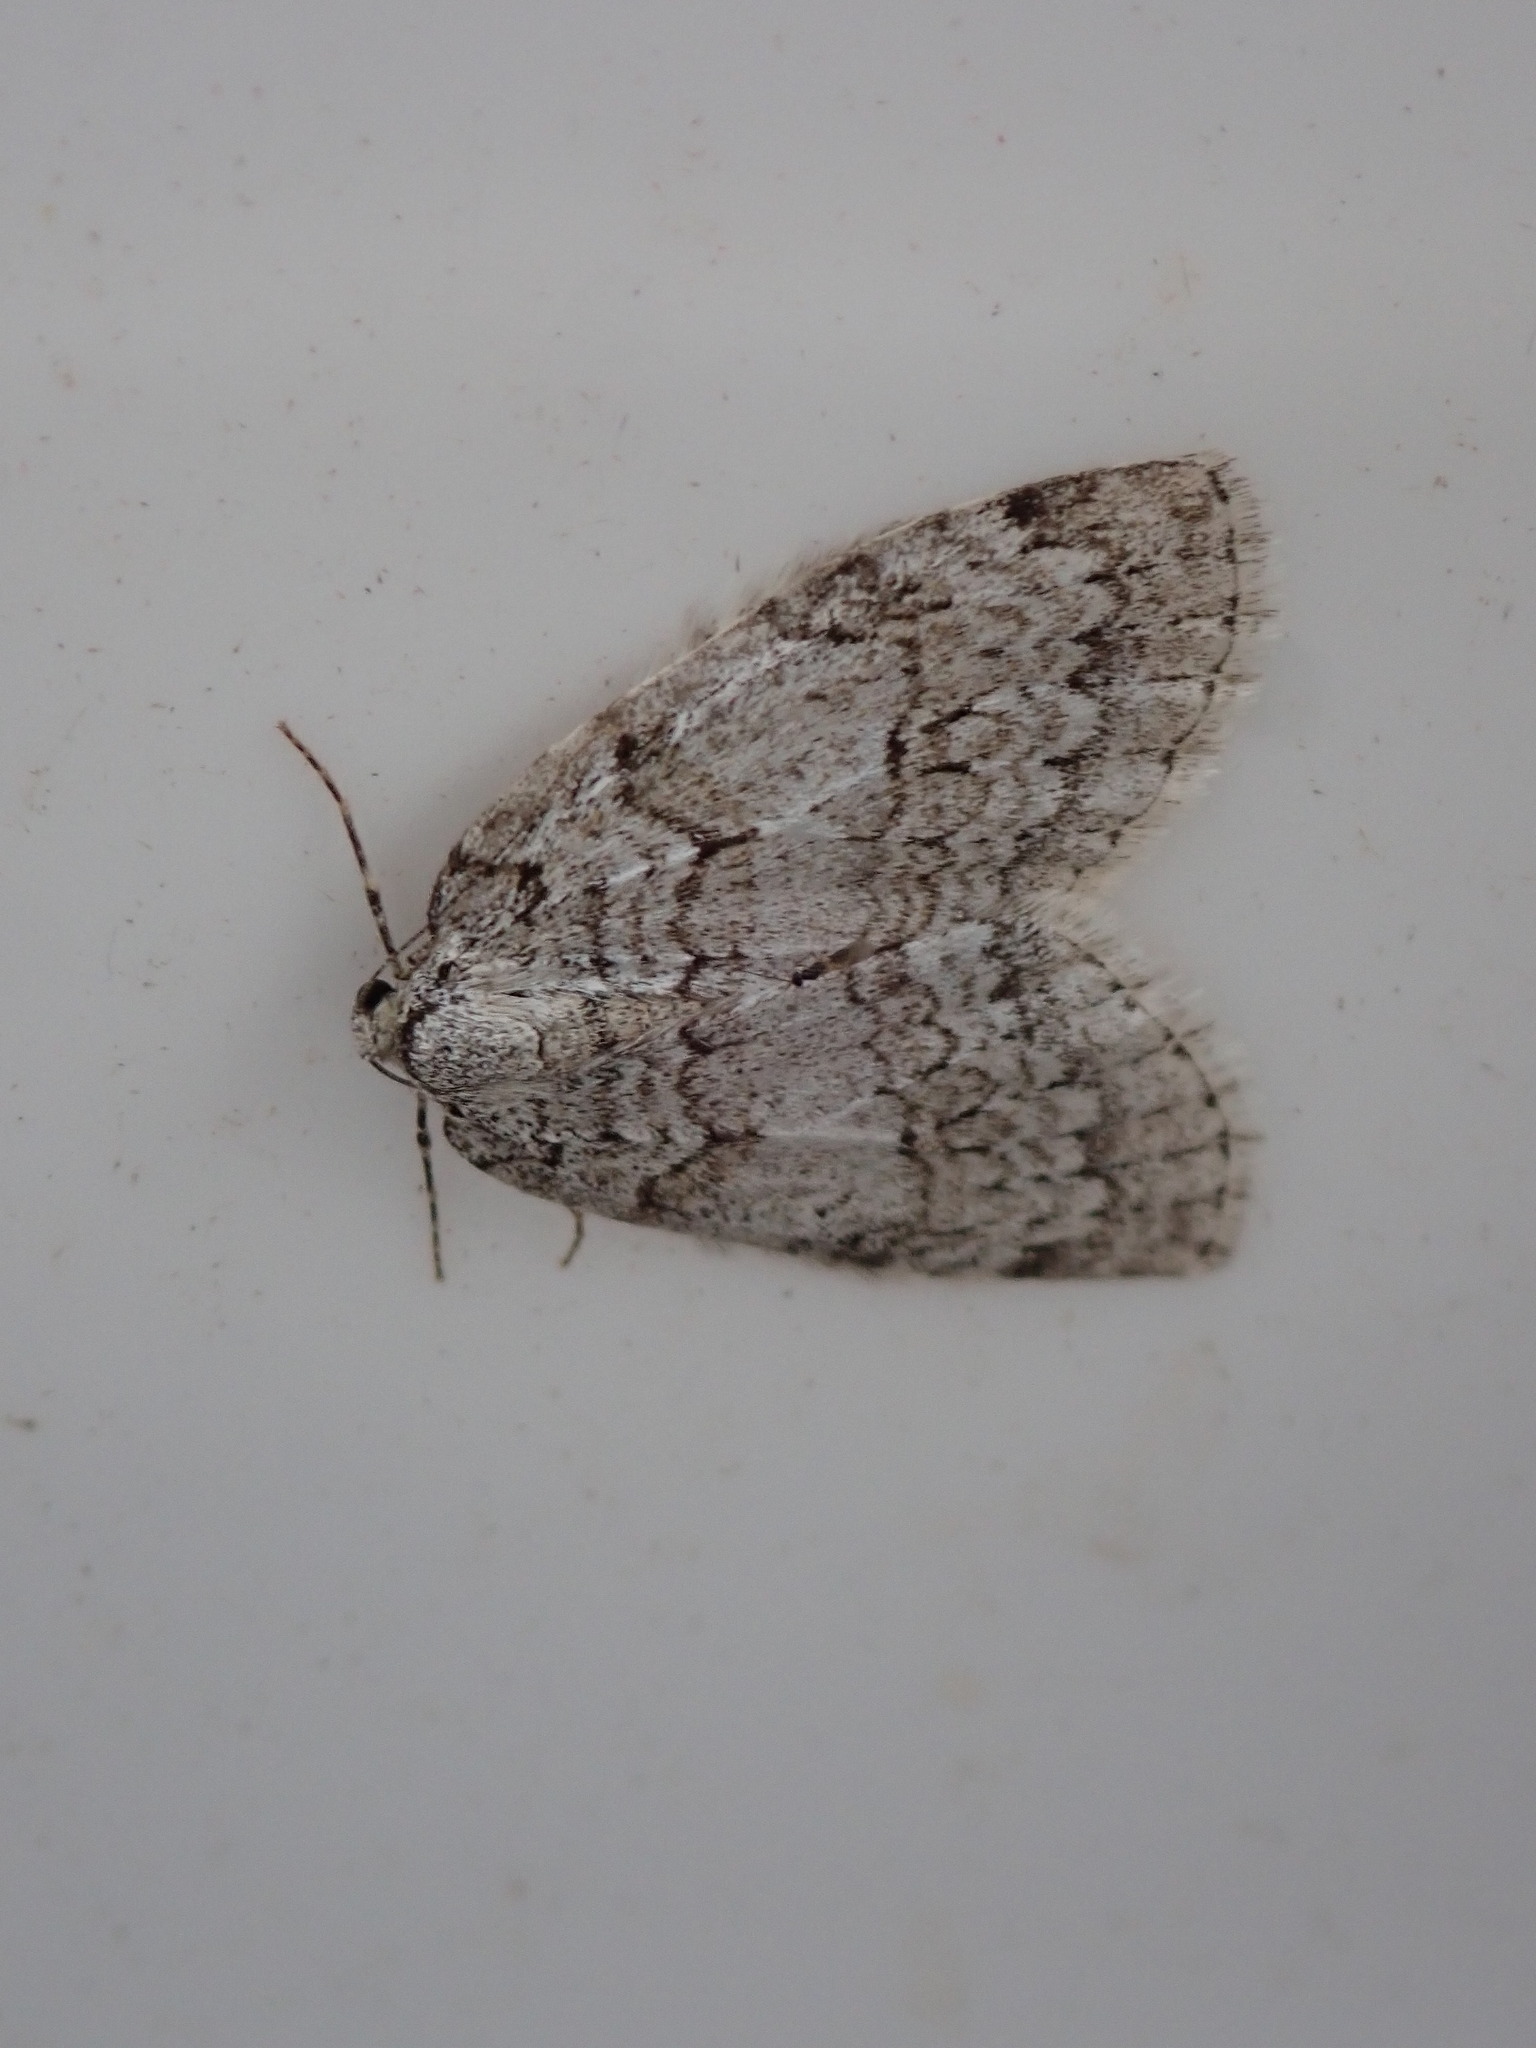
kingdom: Animalia
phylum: Arthropoda
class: Insecta
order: Lepidoptera
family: Geometridae
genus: Epirrita
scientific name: Epirrita autumnata
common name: Autumnal moth
